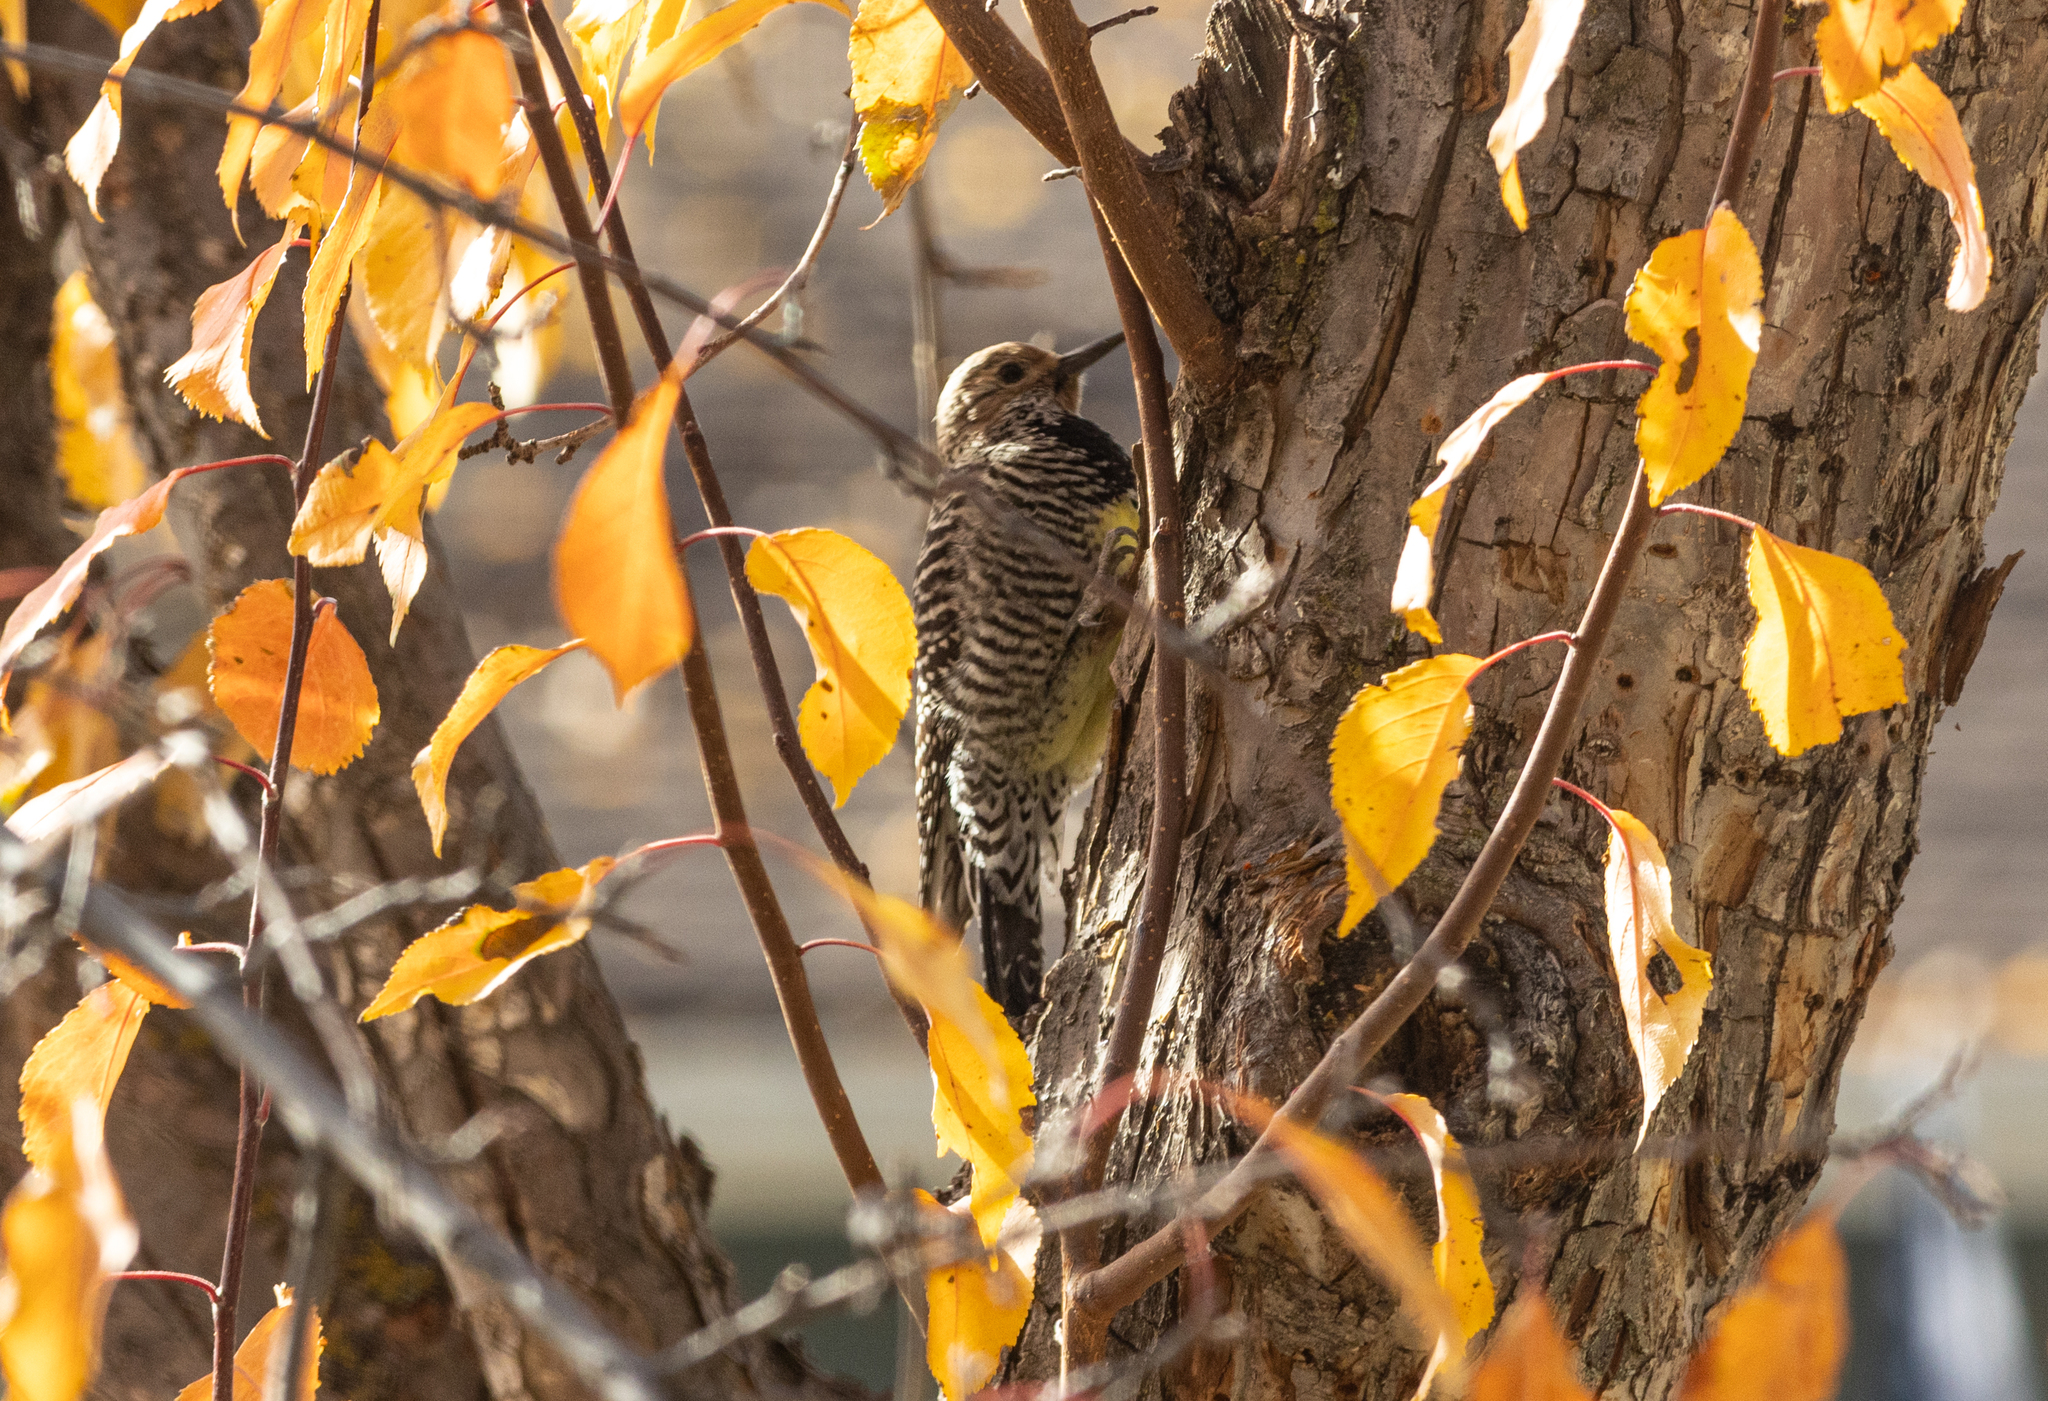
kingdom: Animalia
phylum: Chordata
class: Aves
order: Piciformes
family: Picidae
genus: Sphyrapicus
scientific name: Sphyrapicus thyroideus
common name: Williamson's sapsucker
